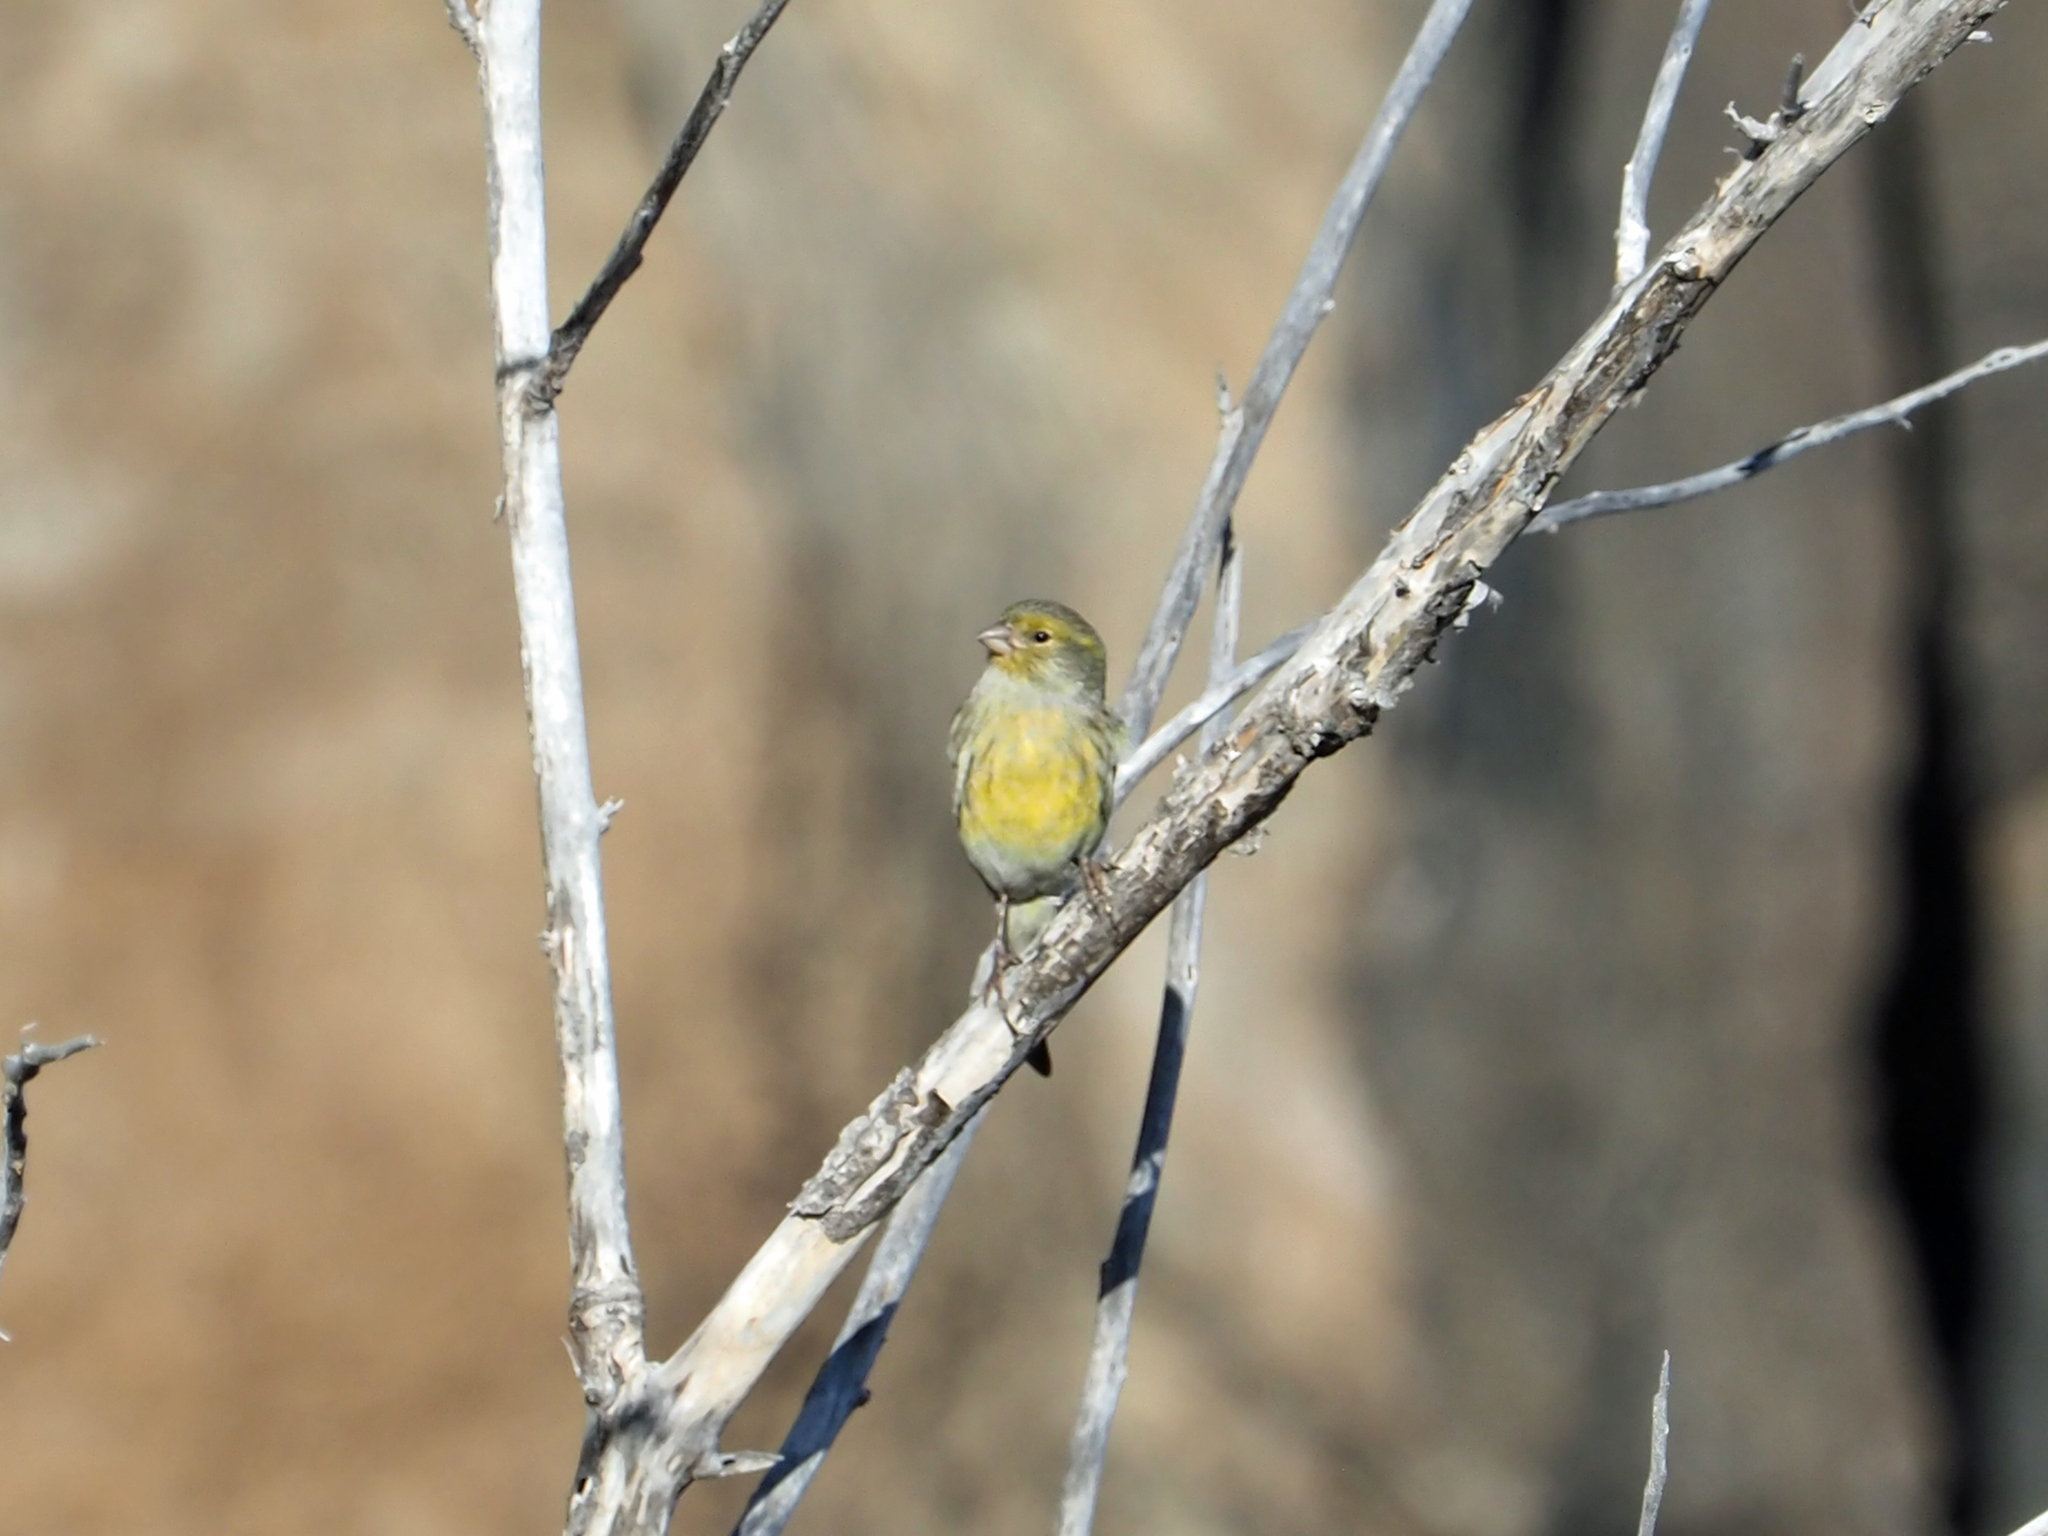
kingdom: Animalia
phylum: Chordata
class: Aves
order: Passeriformes
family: Fringillidae
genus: Serinus
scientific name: Serinus canaria
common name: Atlantic canary
